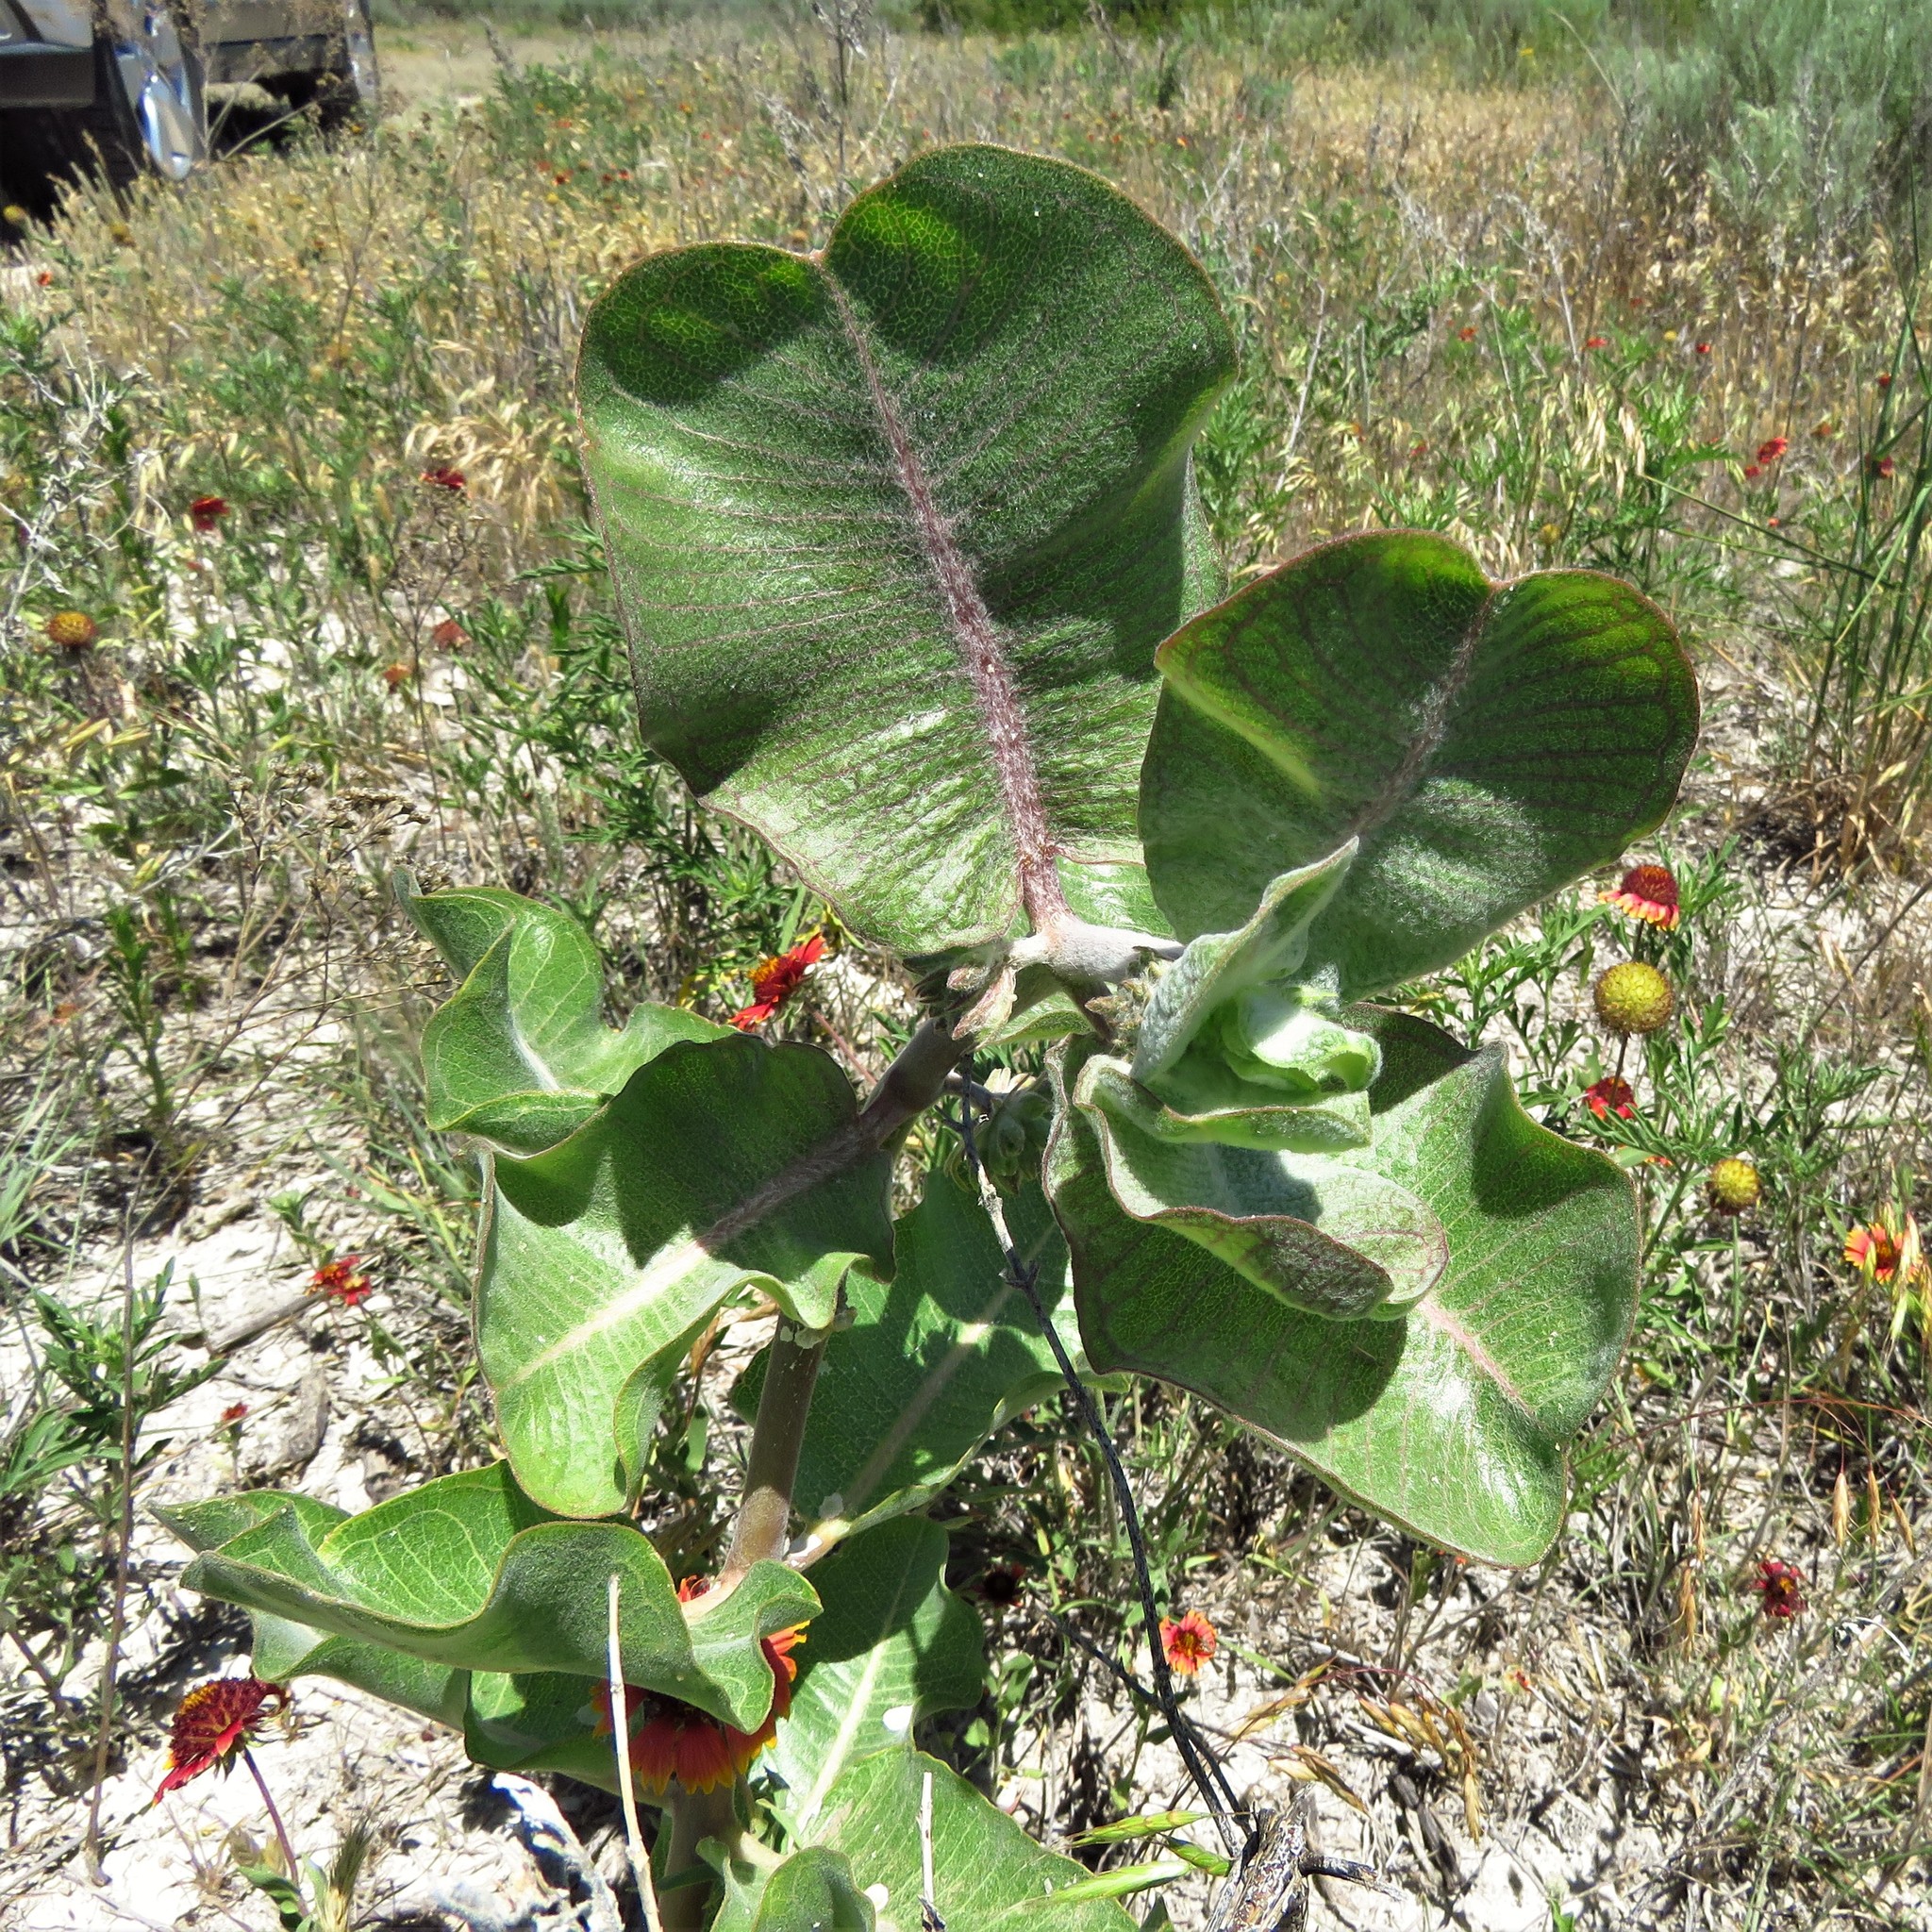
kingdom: Plantae
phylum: Tracheophyta
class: Magnoliopsida
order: Gentianales
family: Apocynaceae
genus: Asclepias
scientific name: Asclepias latifolia
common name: Broadleaf milkweed
